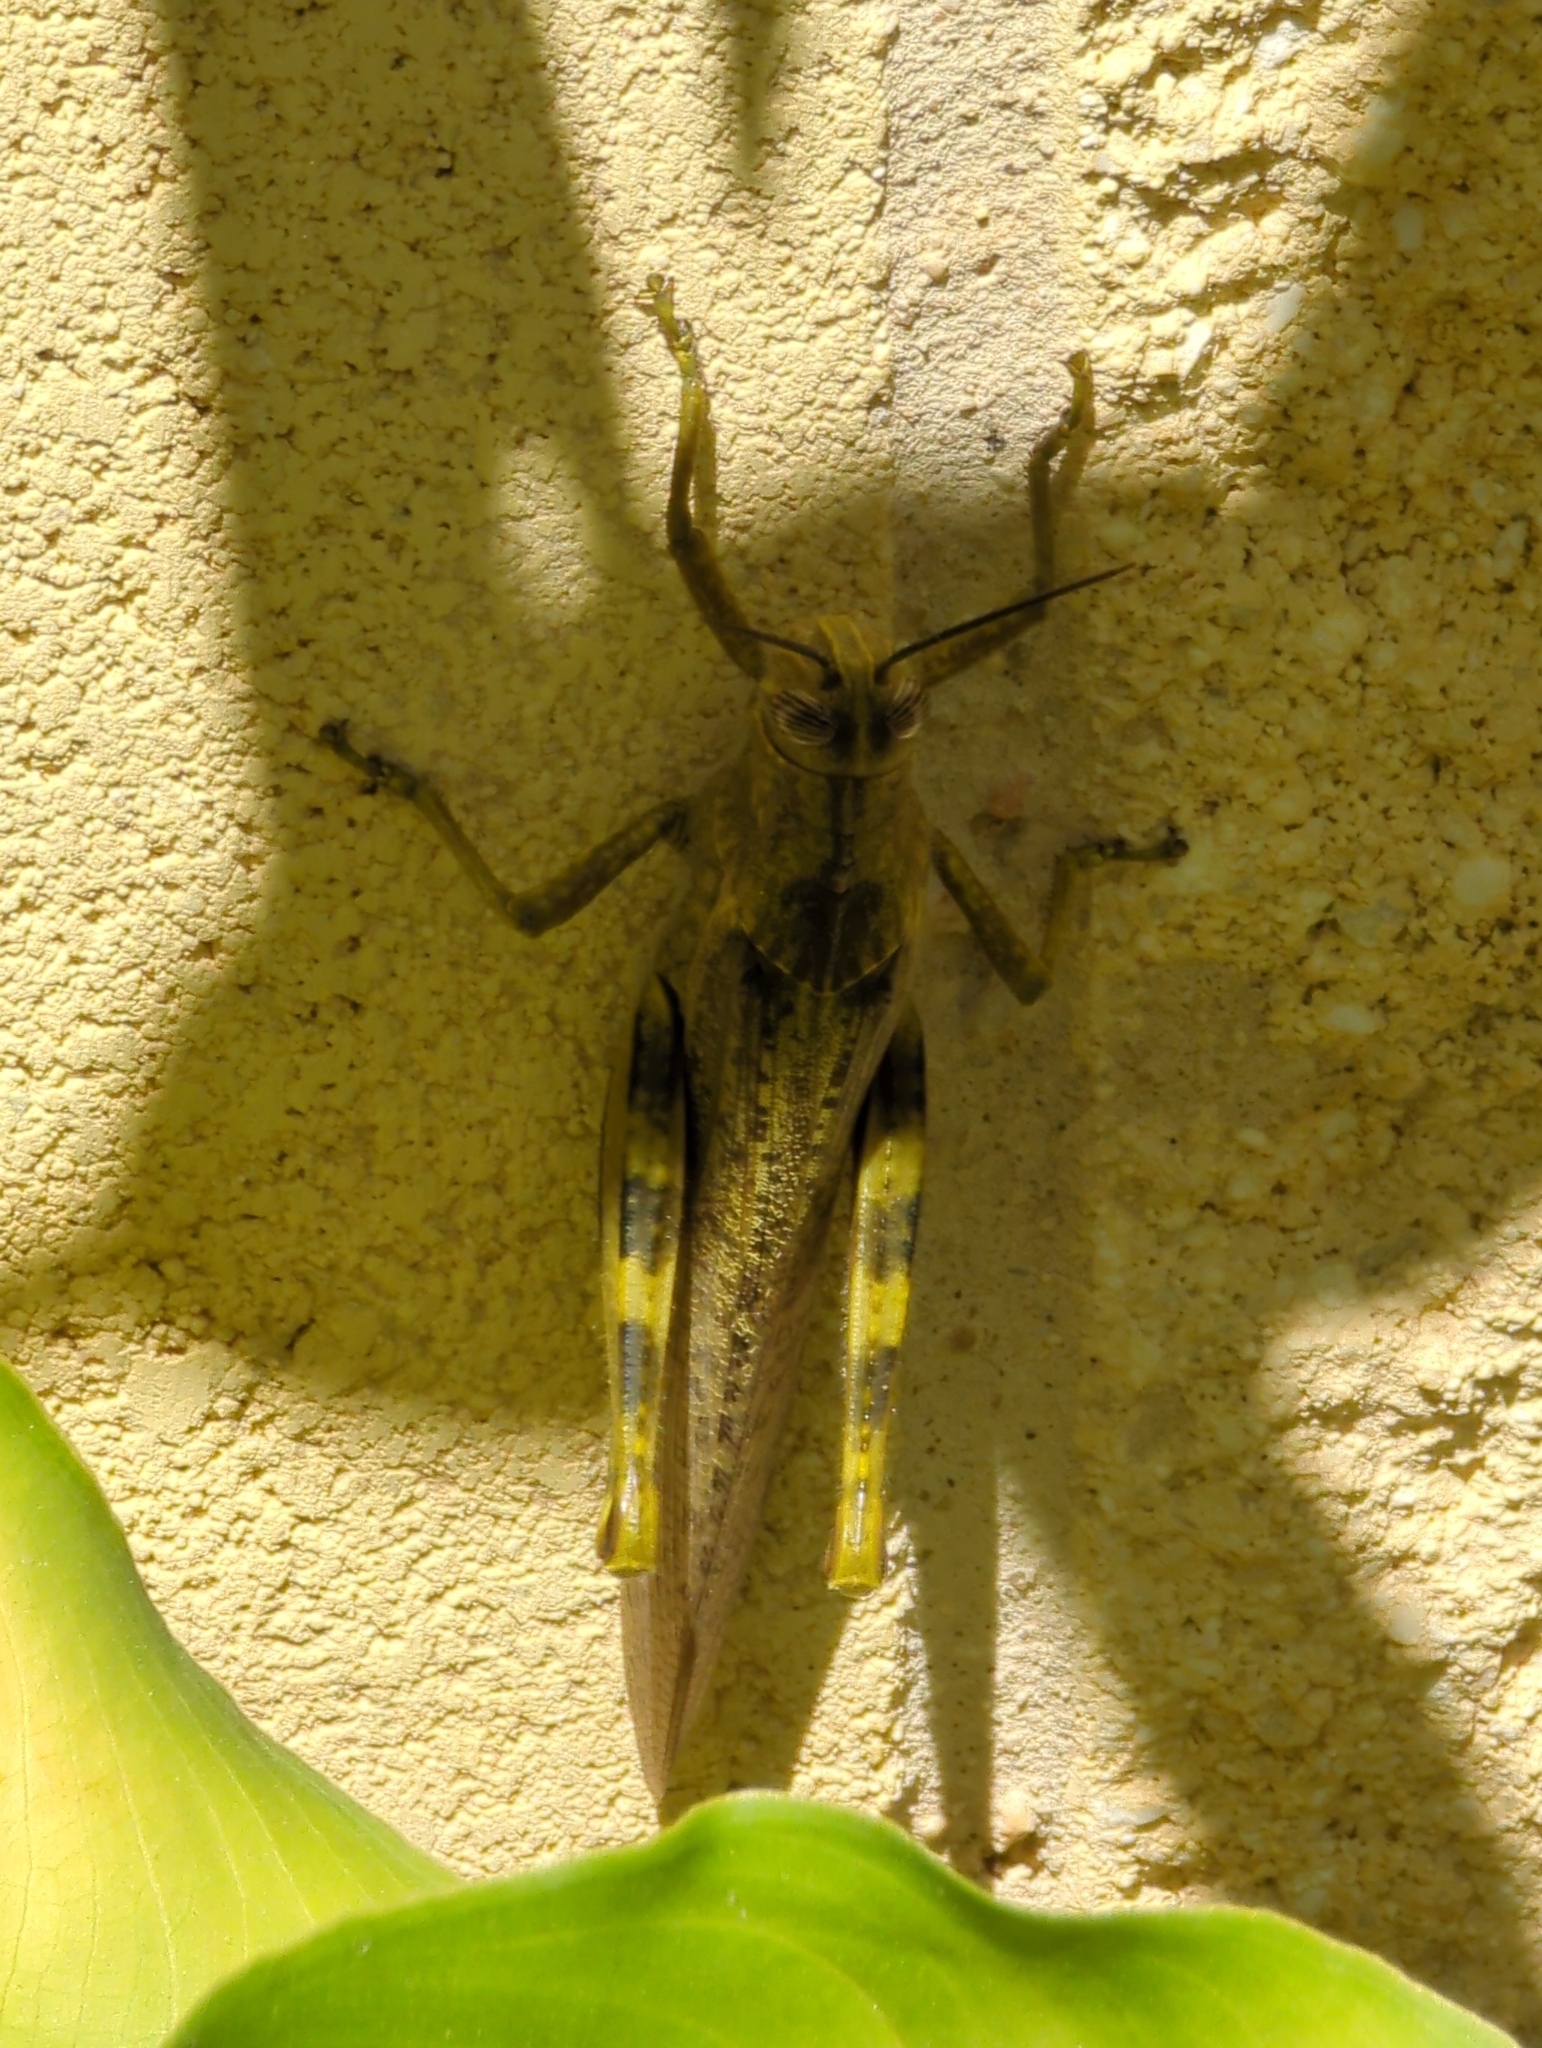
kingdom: Animalia
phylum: Arthropoda
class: Insecta
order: Orthoptera
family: Acrididae
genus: Anacridium
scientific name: Anacridium aegyptium
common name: Egyptian grasshopper
